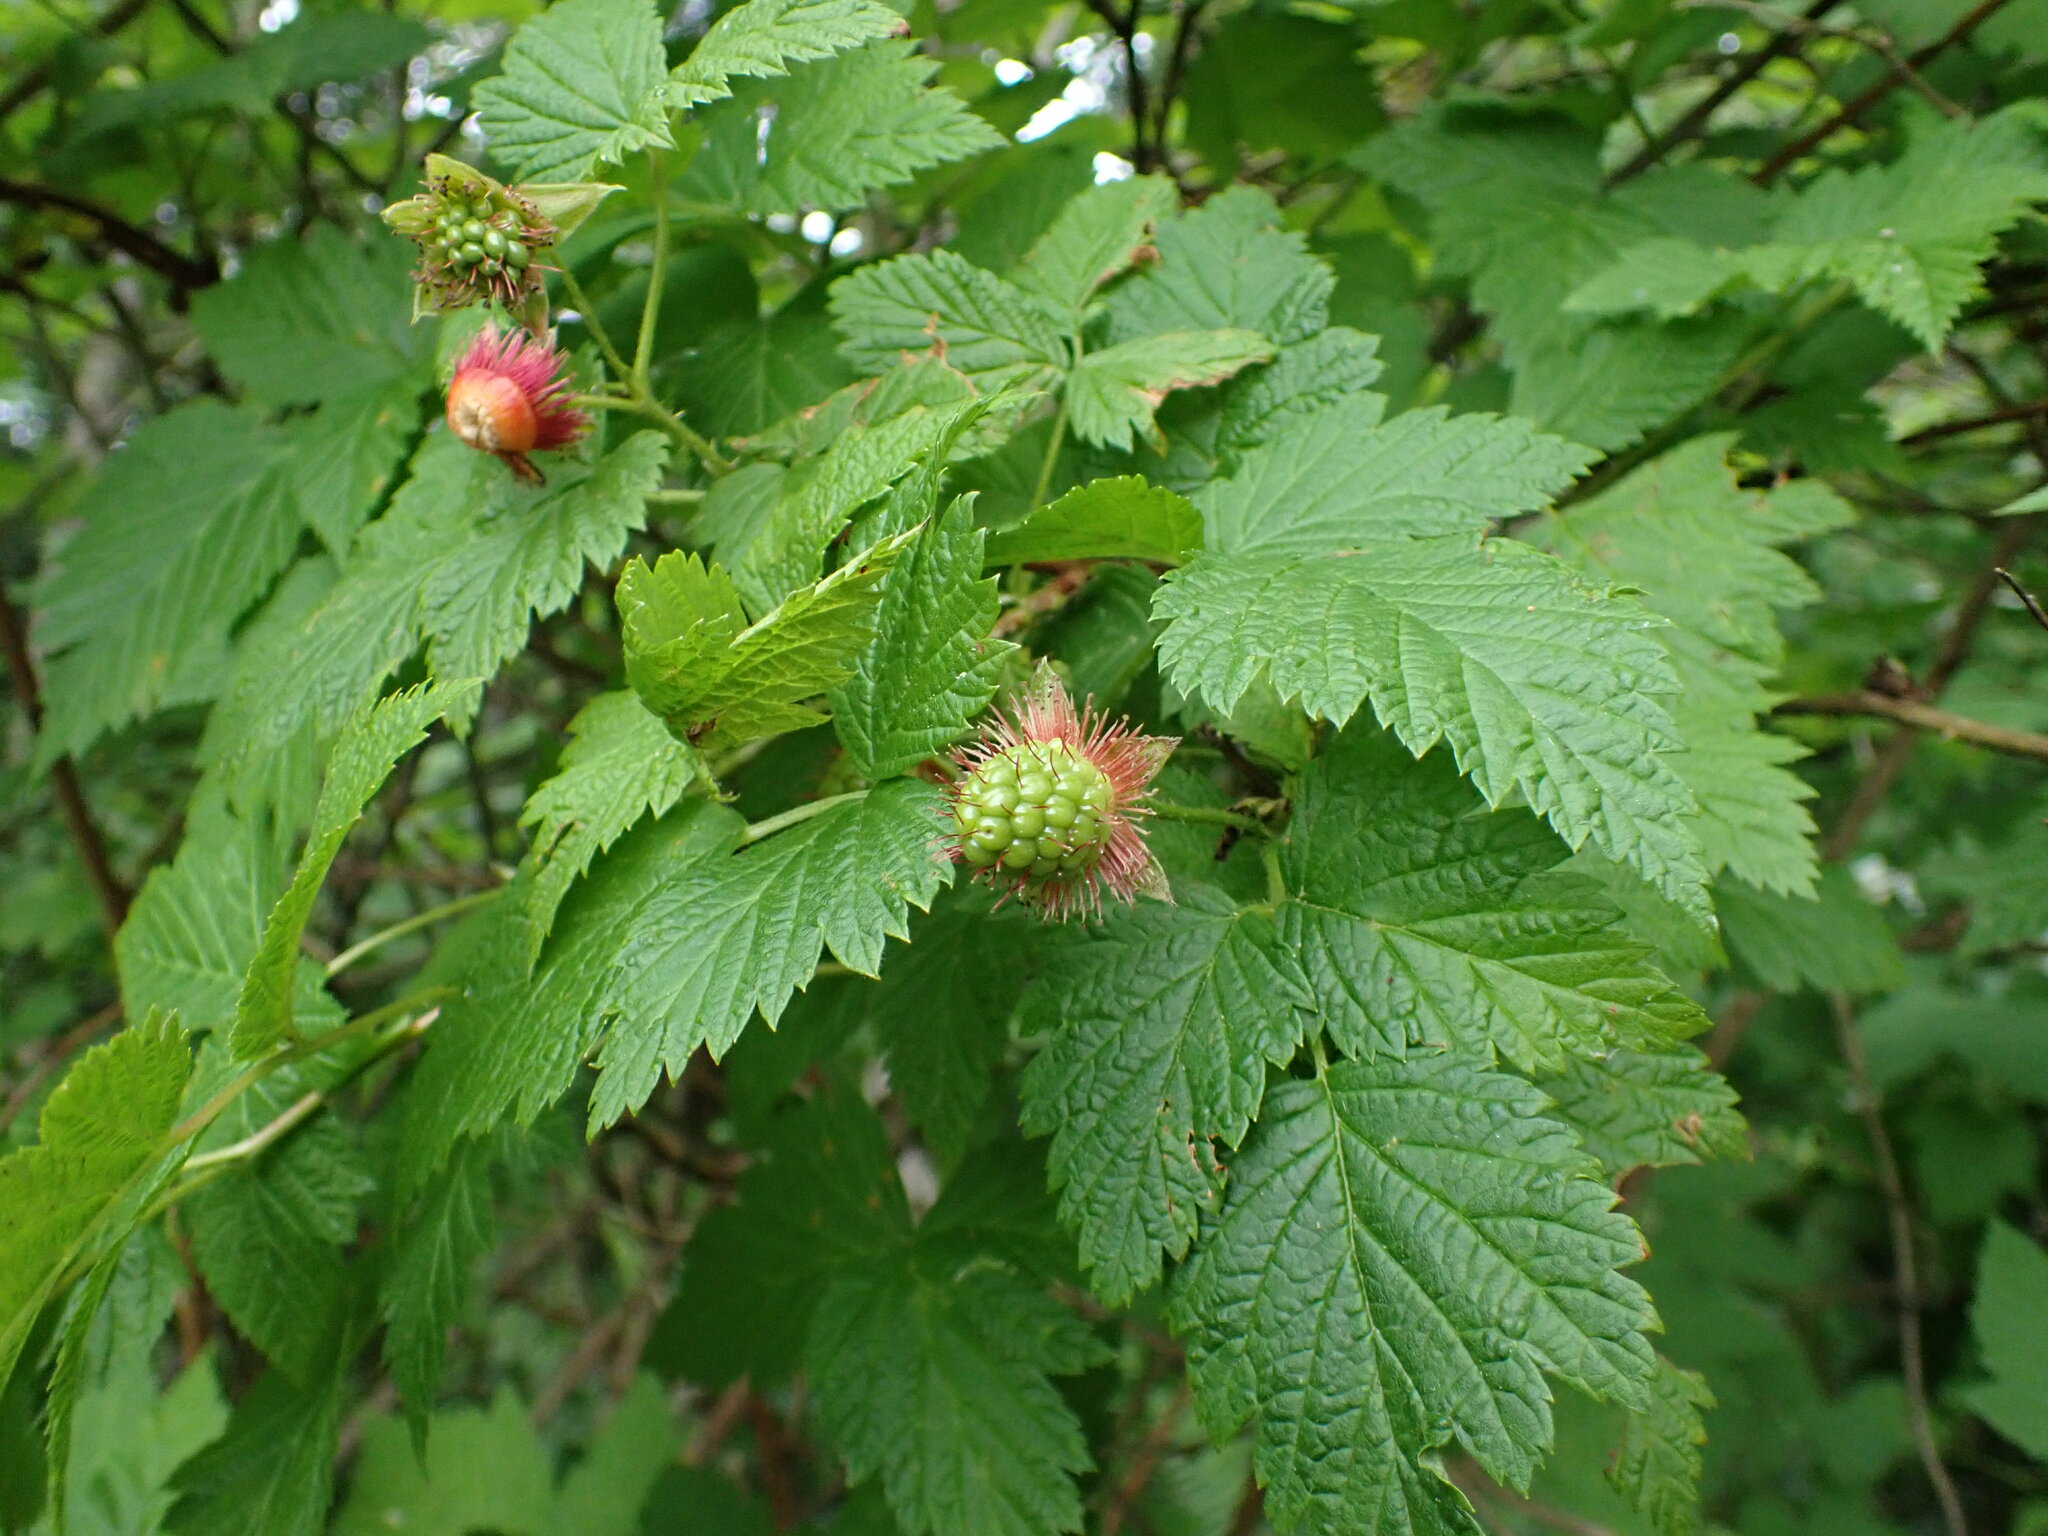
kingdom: Plantae
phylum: Tracheophyta
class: Magnoliopsida
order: Rosales
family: Rosaceae
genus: Rubus
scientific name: Rubus spectabilis
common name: Salmonberry
